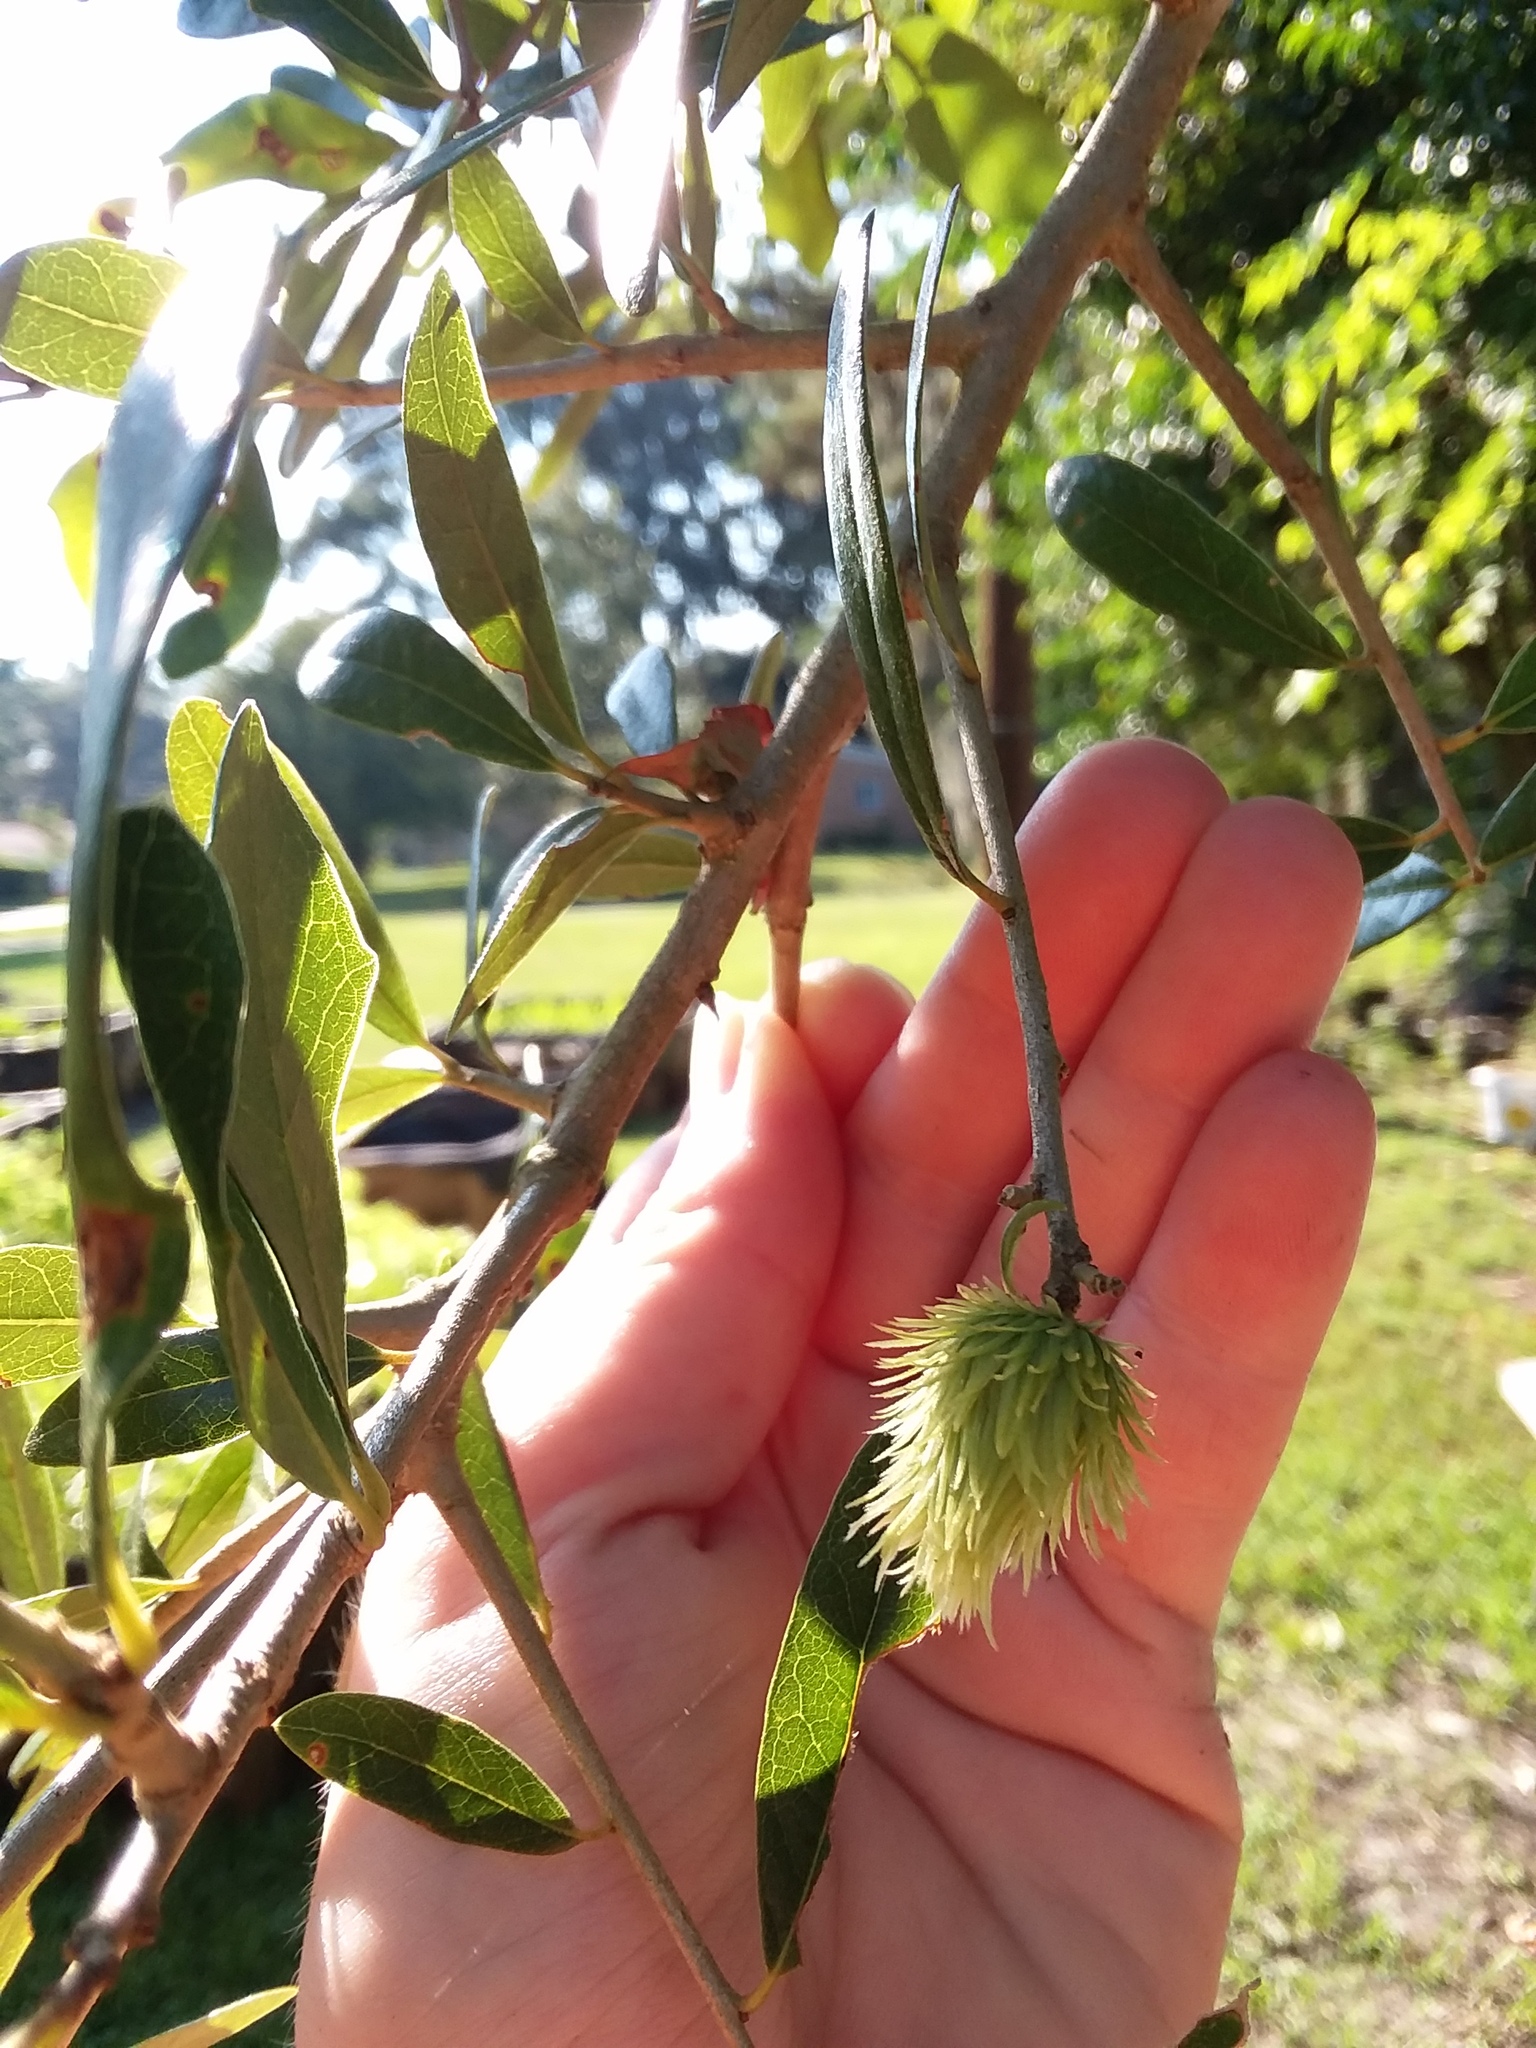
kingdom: Animalia
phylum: Arthropoda
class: Insecta
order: Hymenoptera
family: Cynipidae
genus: Andricus
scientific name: Andricus quercusfoliatus
